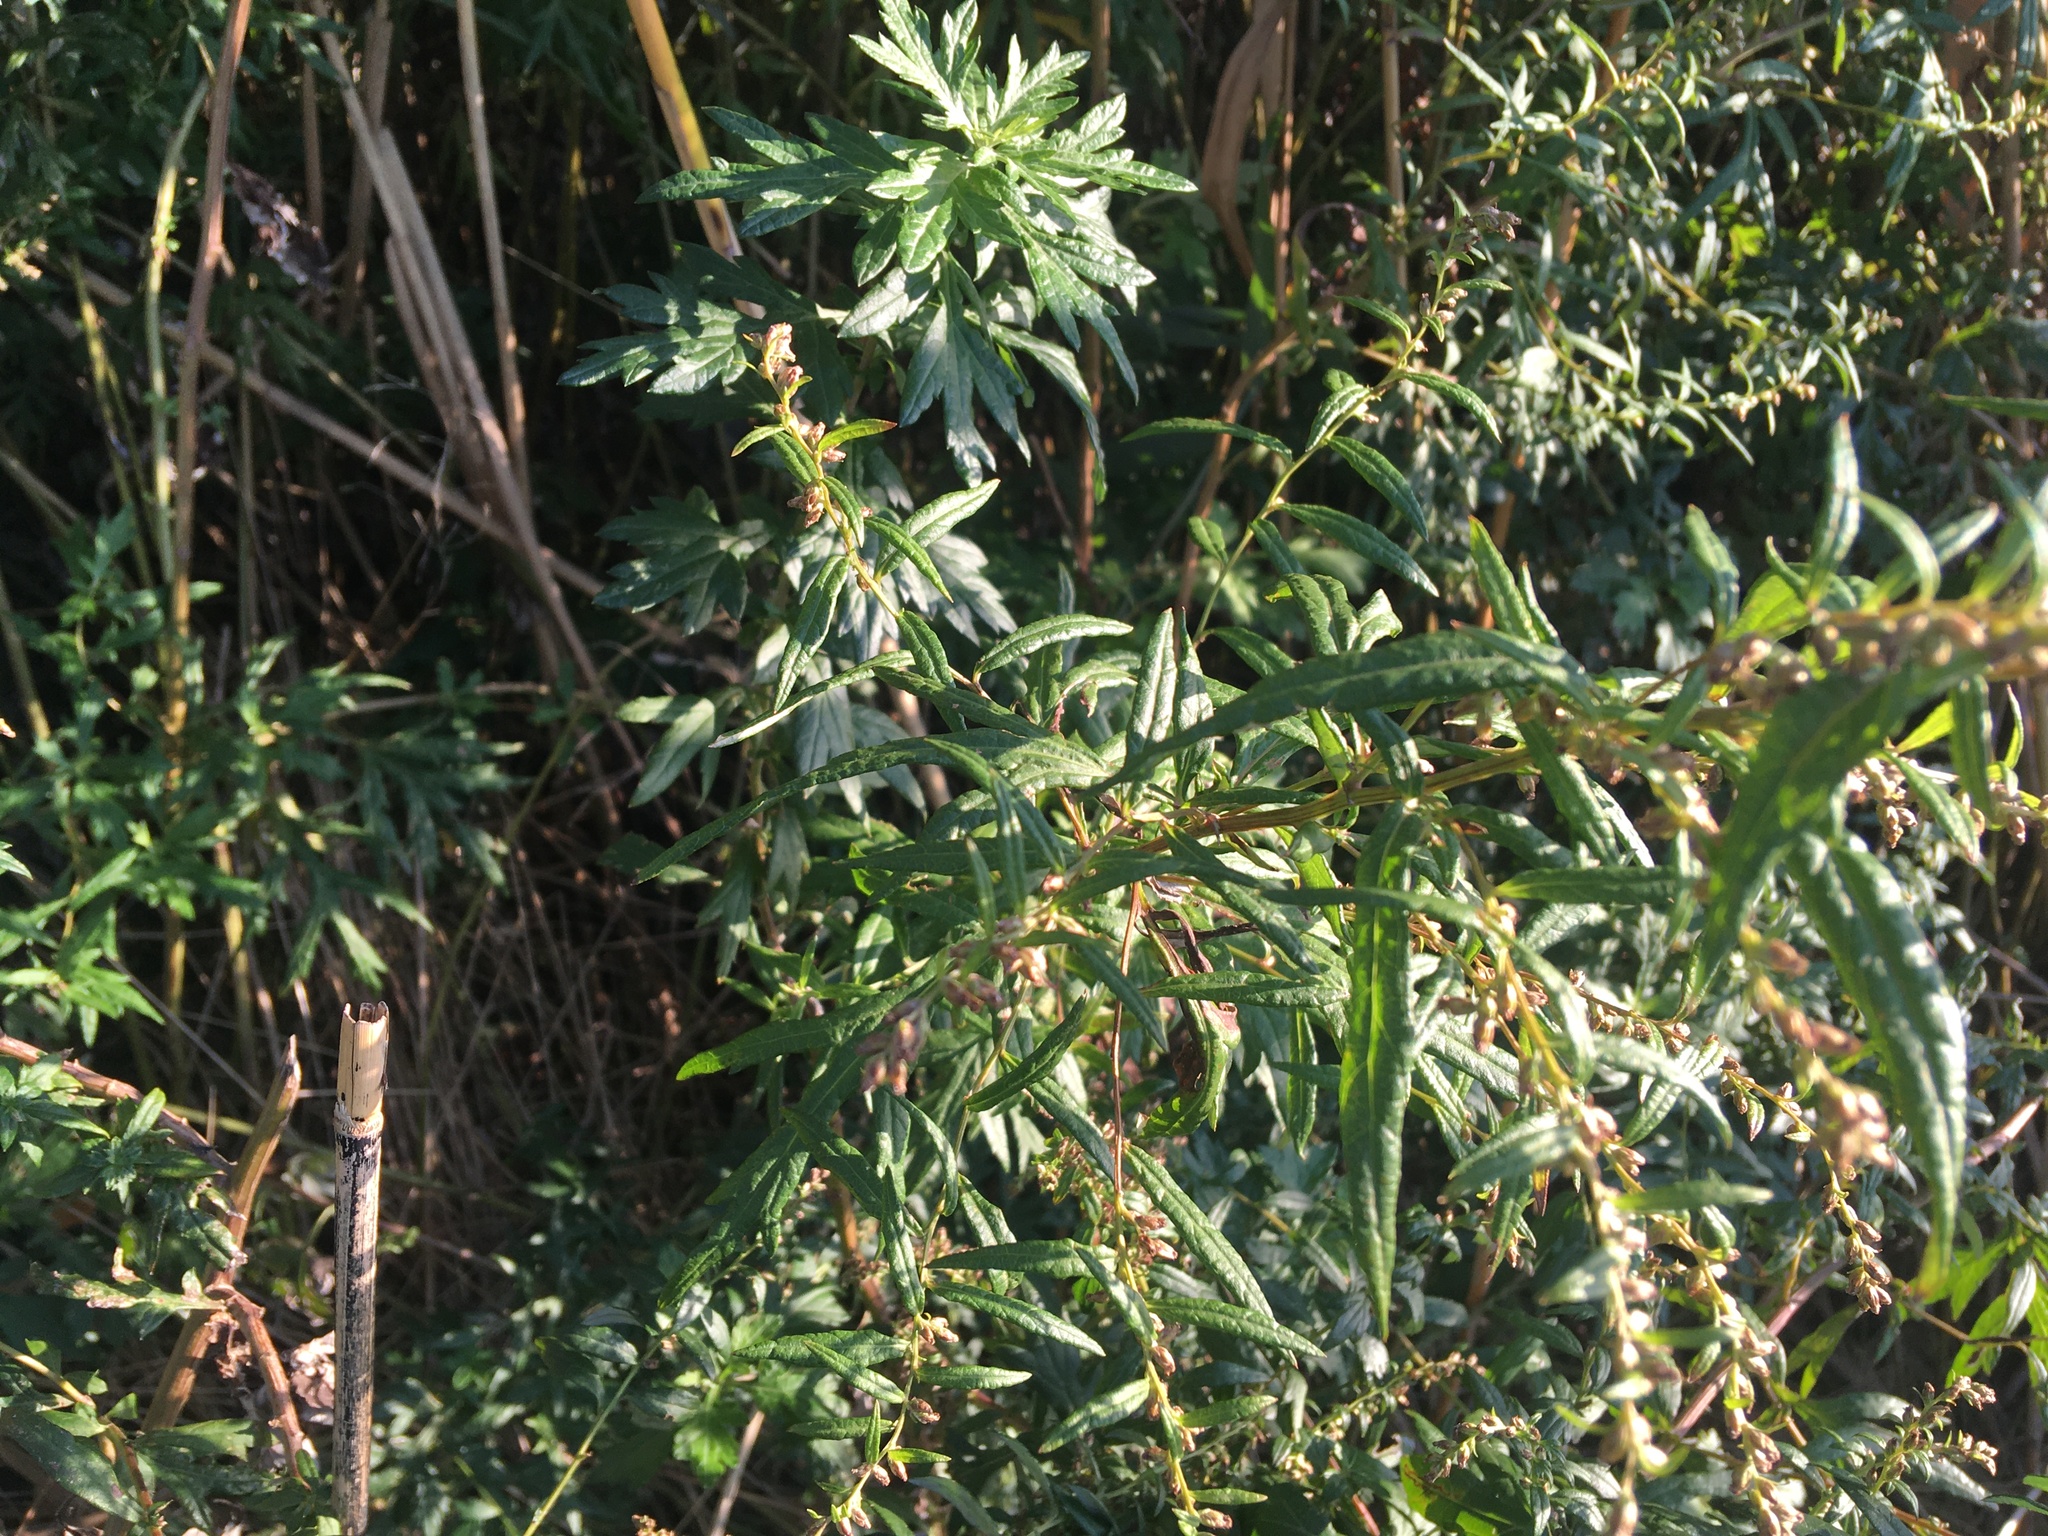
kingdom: Plantae
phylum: Tracheophyta
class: Magnoliopsida
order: Asterales
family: Asteraceae
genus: Artemisia
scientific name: Artemisia vulgaris
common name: Mugwort
